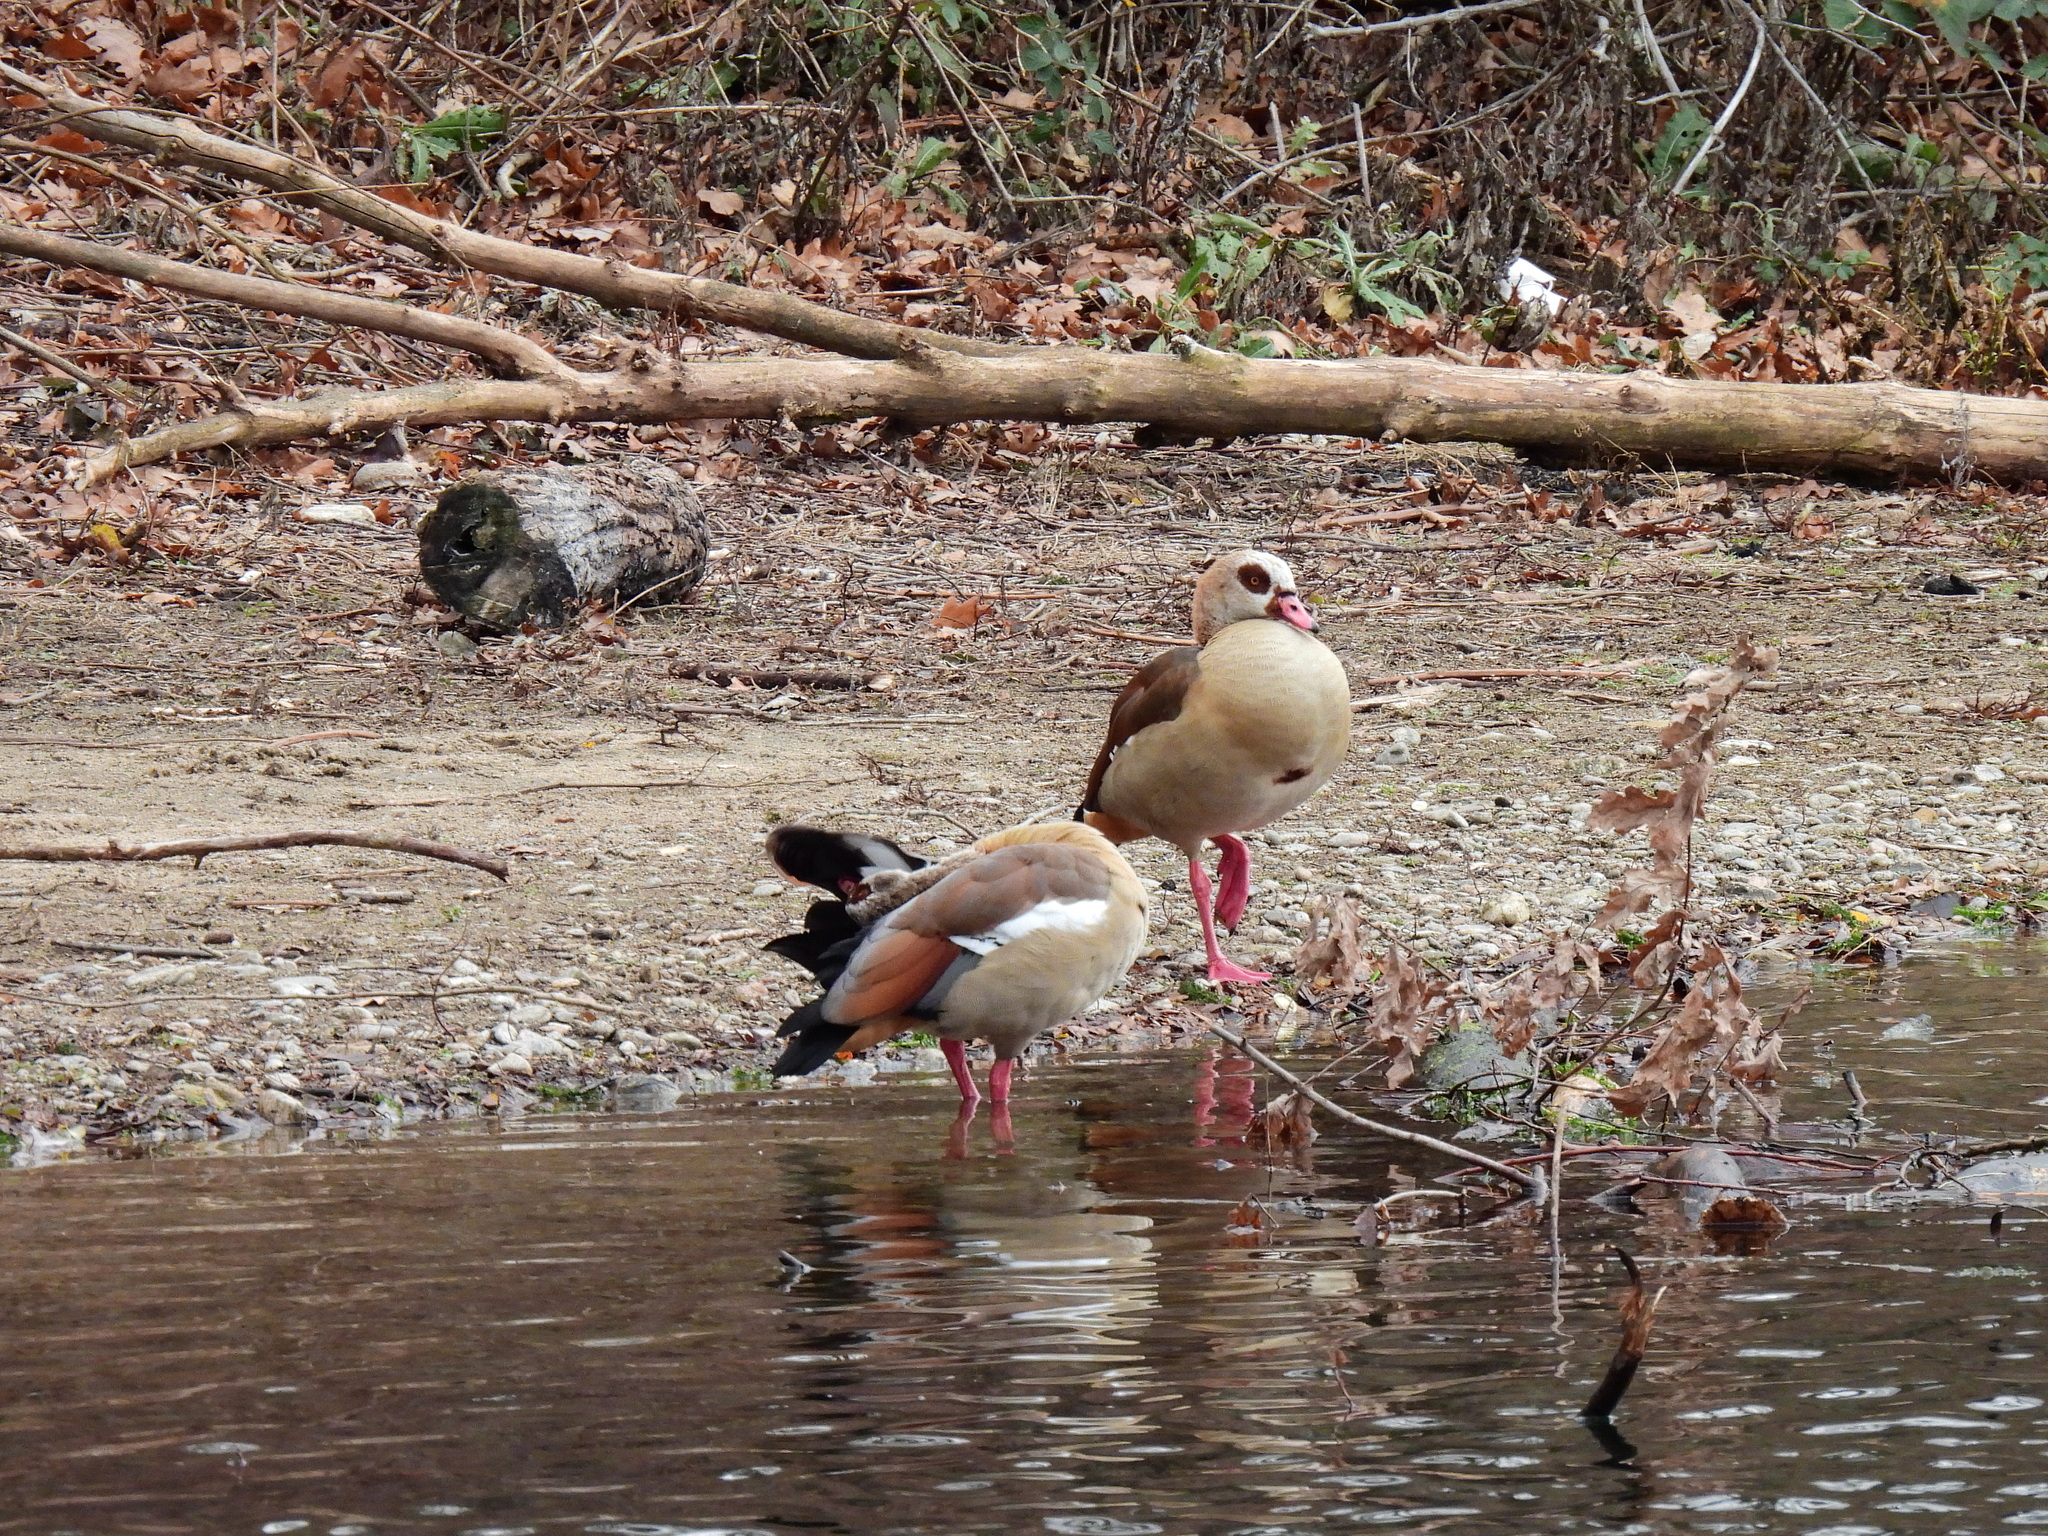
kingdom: Animalia
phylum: Chordata
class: Aves
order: Anseriformes
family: Anatidae
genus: Alopochen
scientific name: Alopochen aegyptiaca
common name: Egyptian goose
